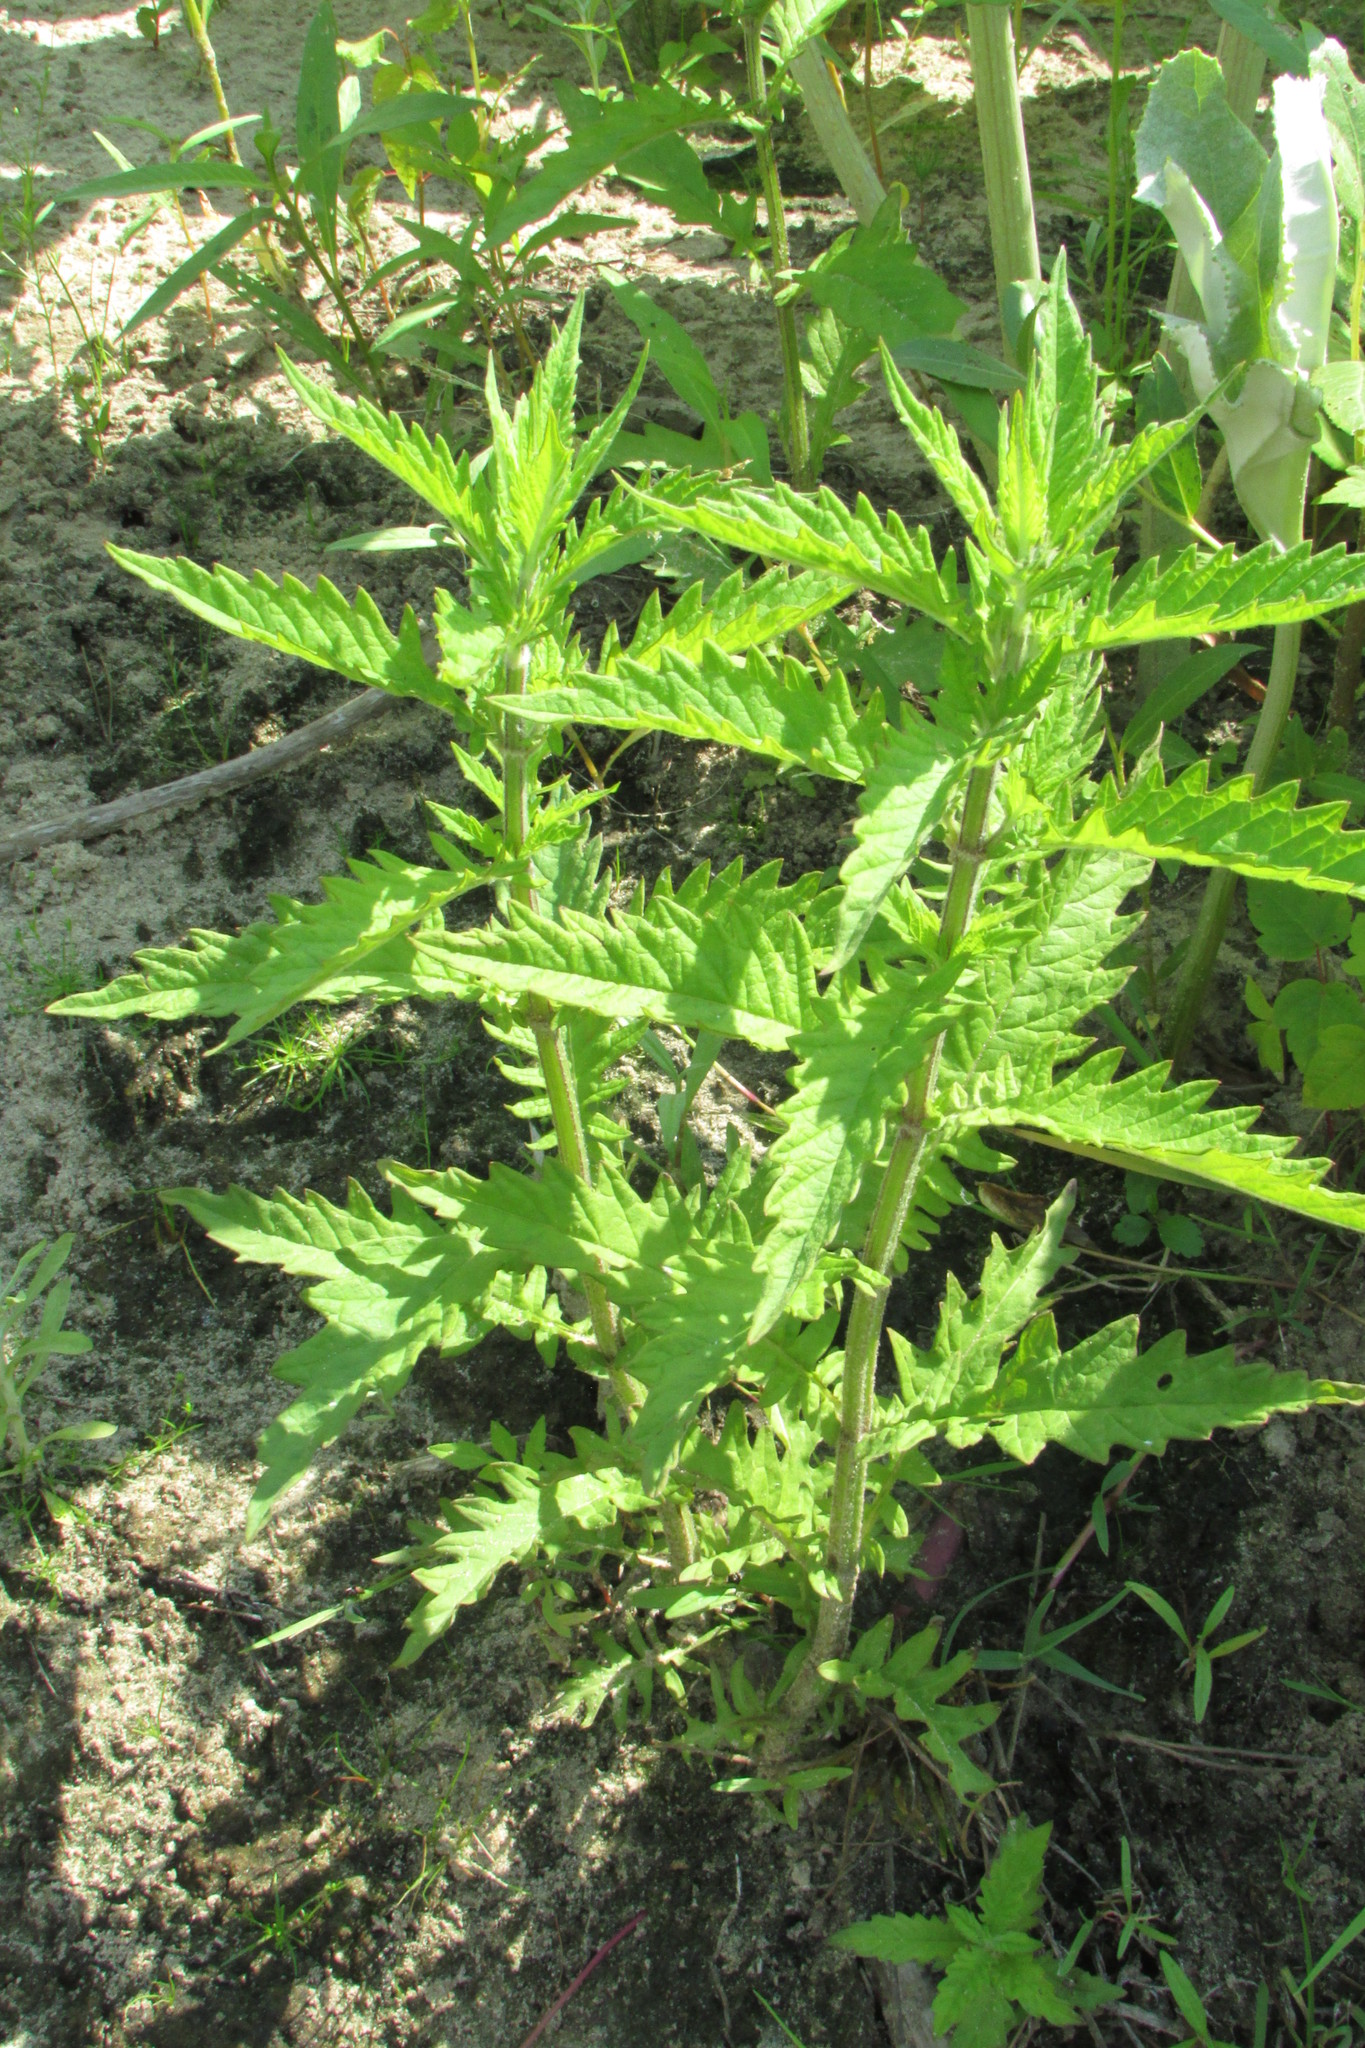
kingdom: Plantae
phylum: Tracheophyta
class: Magnoliopsida
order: Lamiales
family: Lamiaceae
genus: Lycopus
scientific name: Lycopus europaeus
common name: European bugleweed
